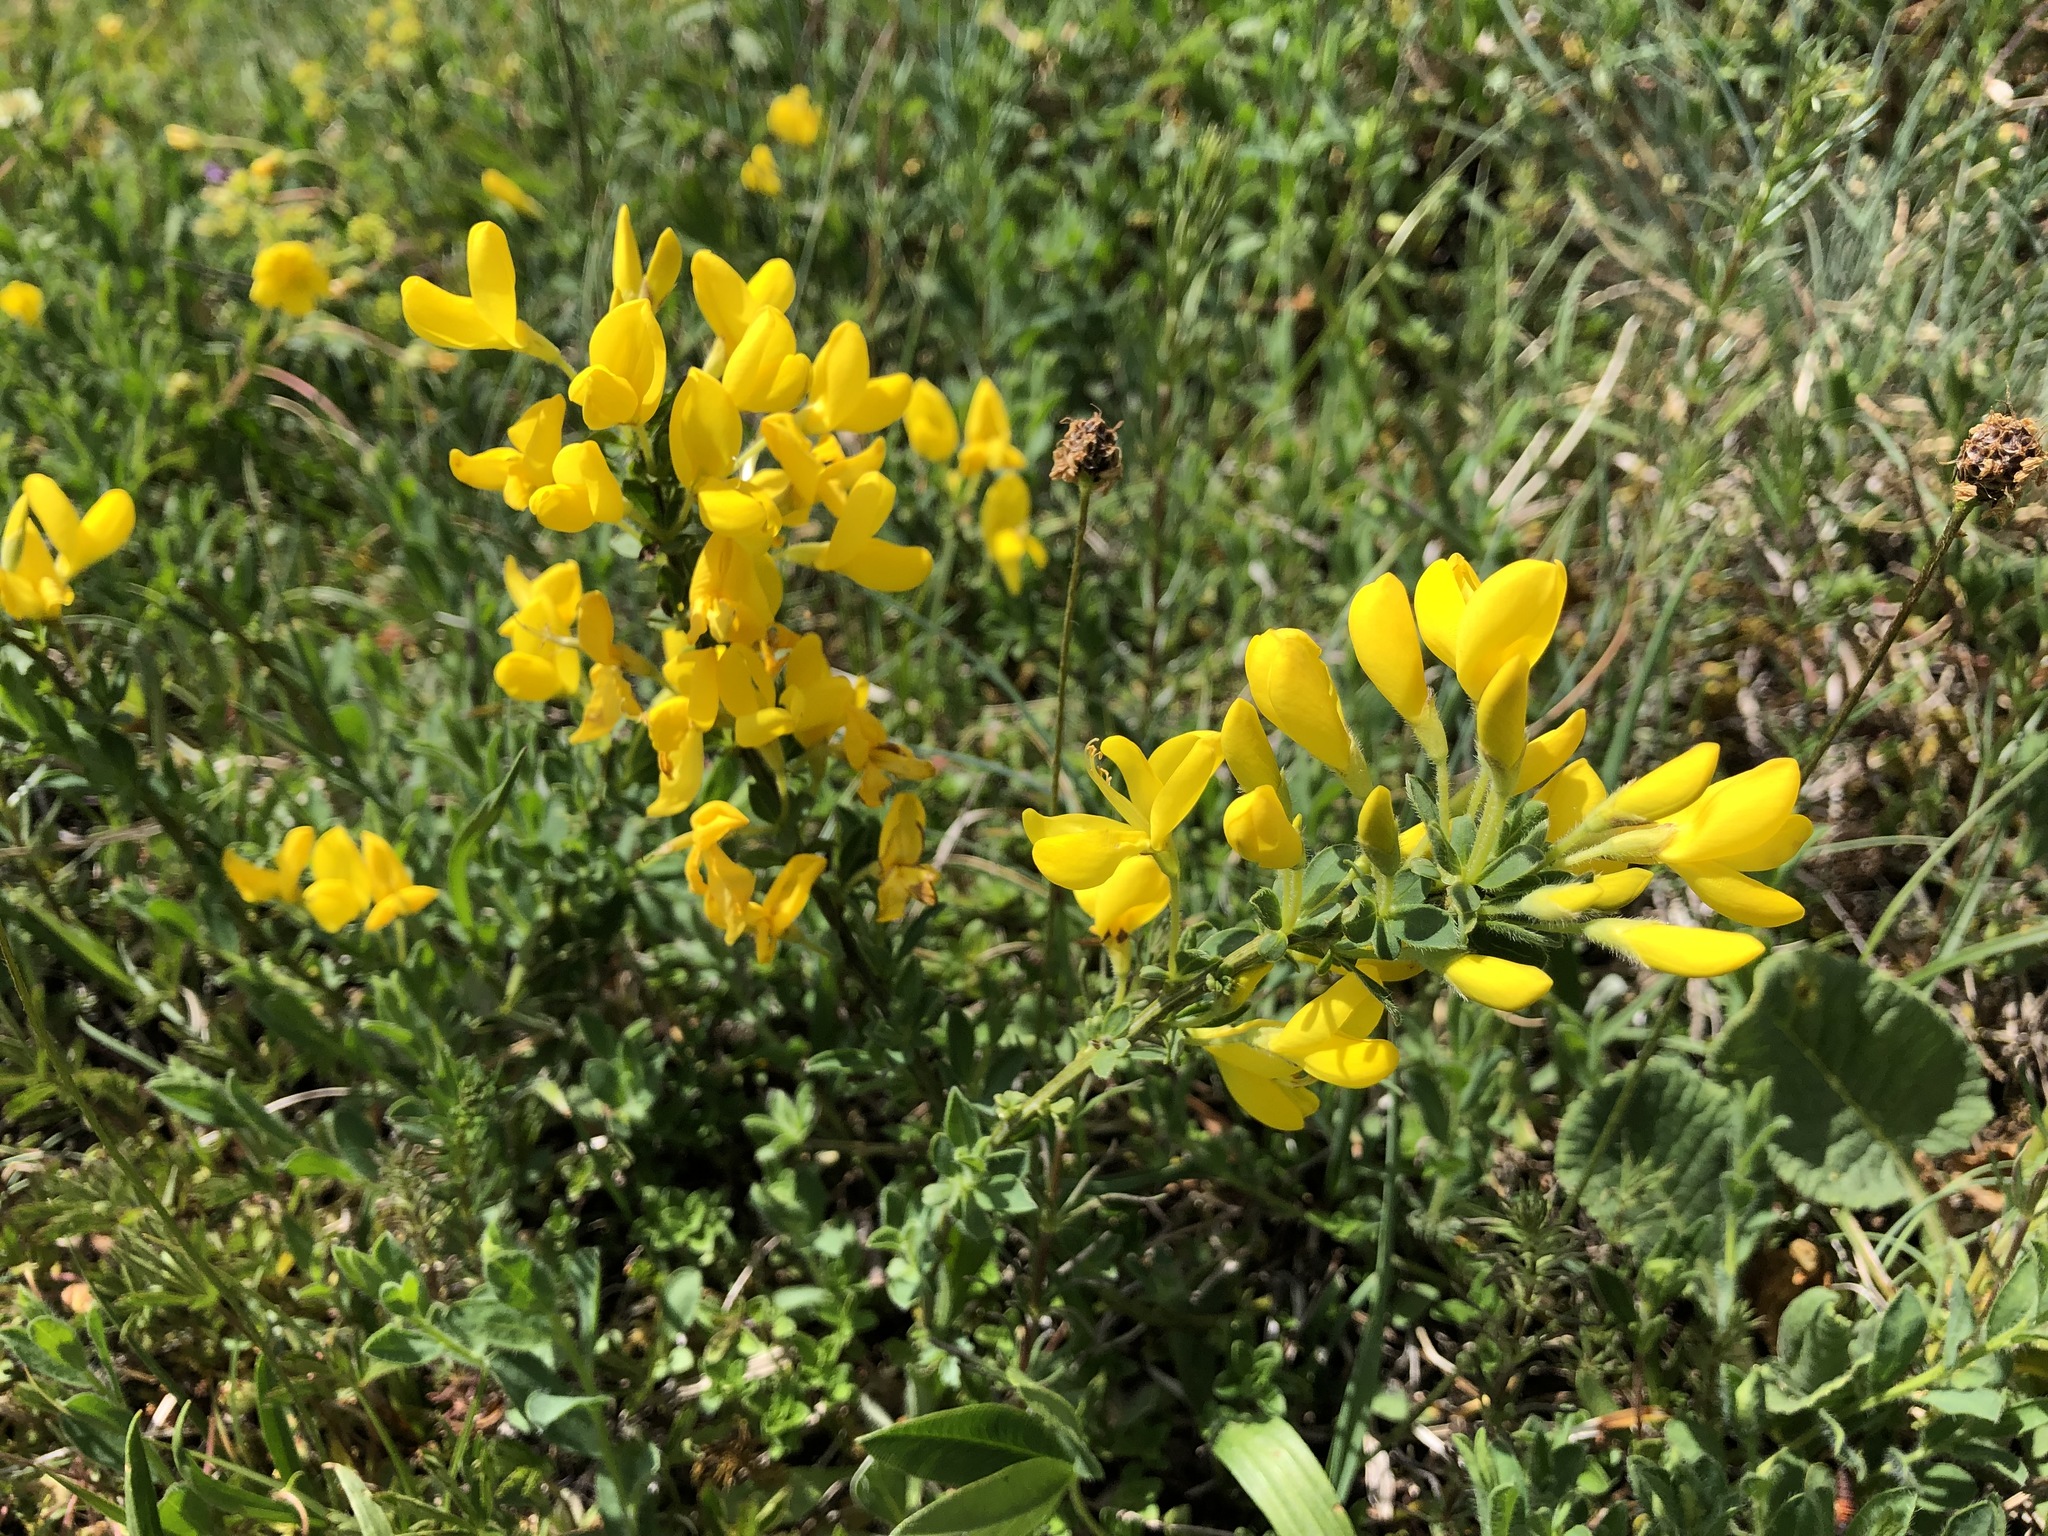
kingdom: Plantae
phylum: Tracheophyta
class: Magnoliopsida
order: Fabales
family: Fabaceae
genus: Cytisus
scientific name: Cytisus decumbens
